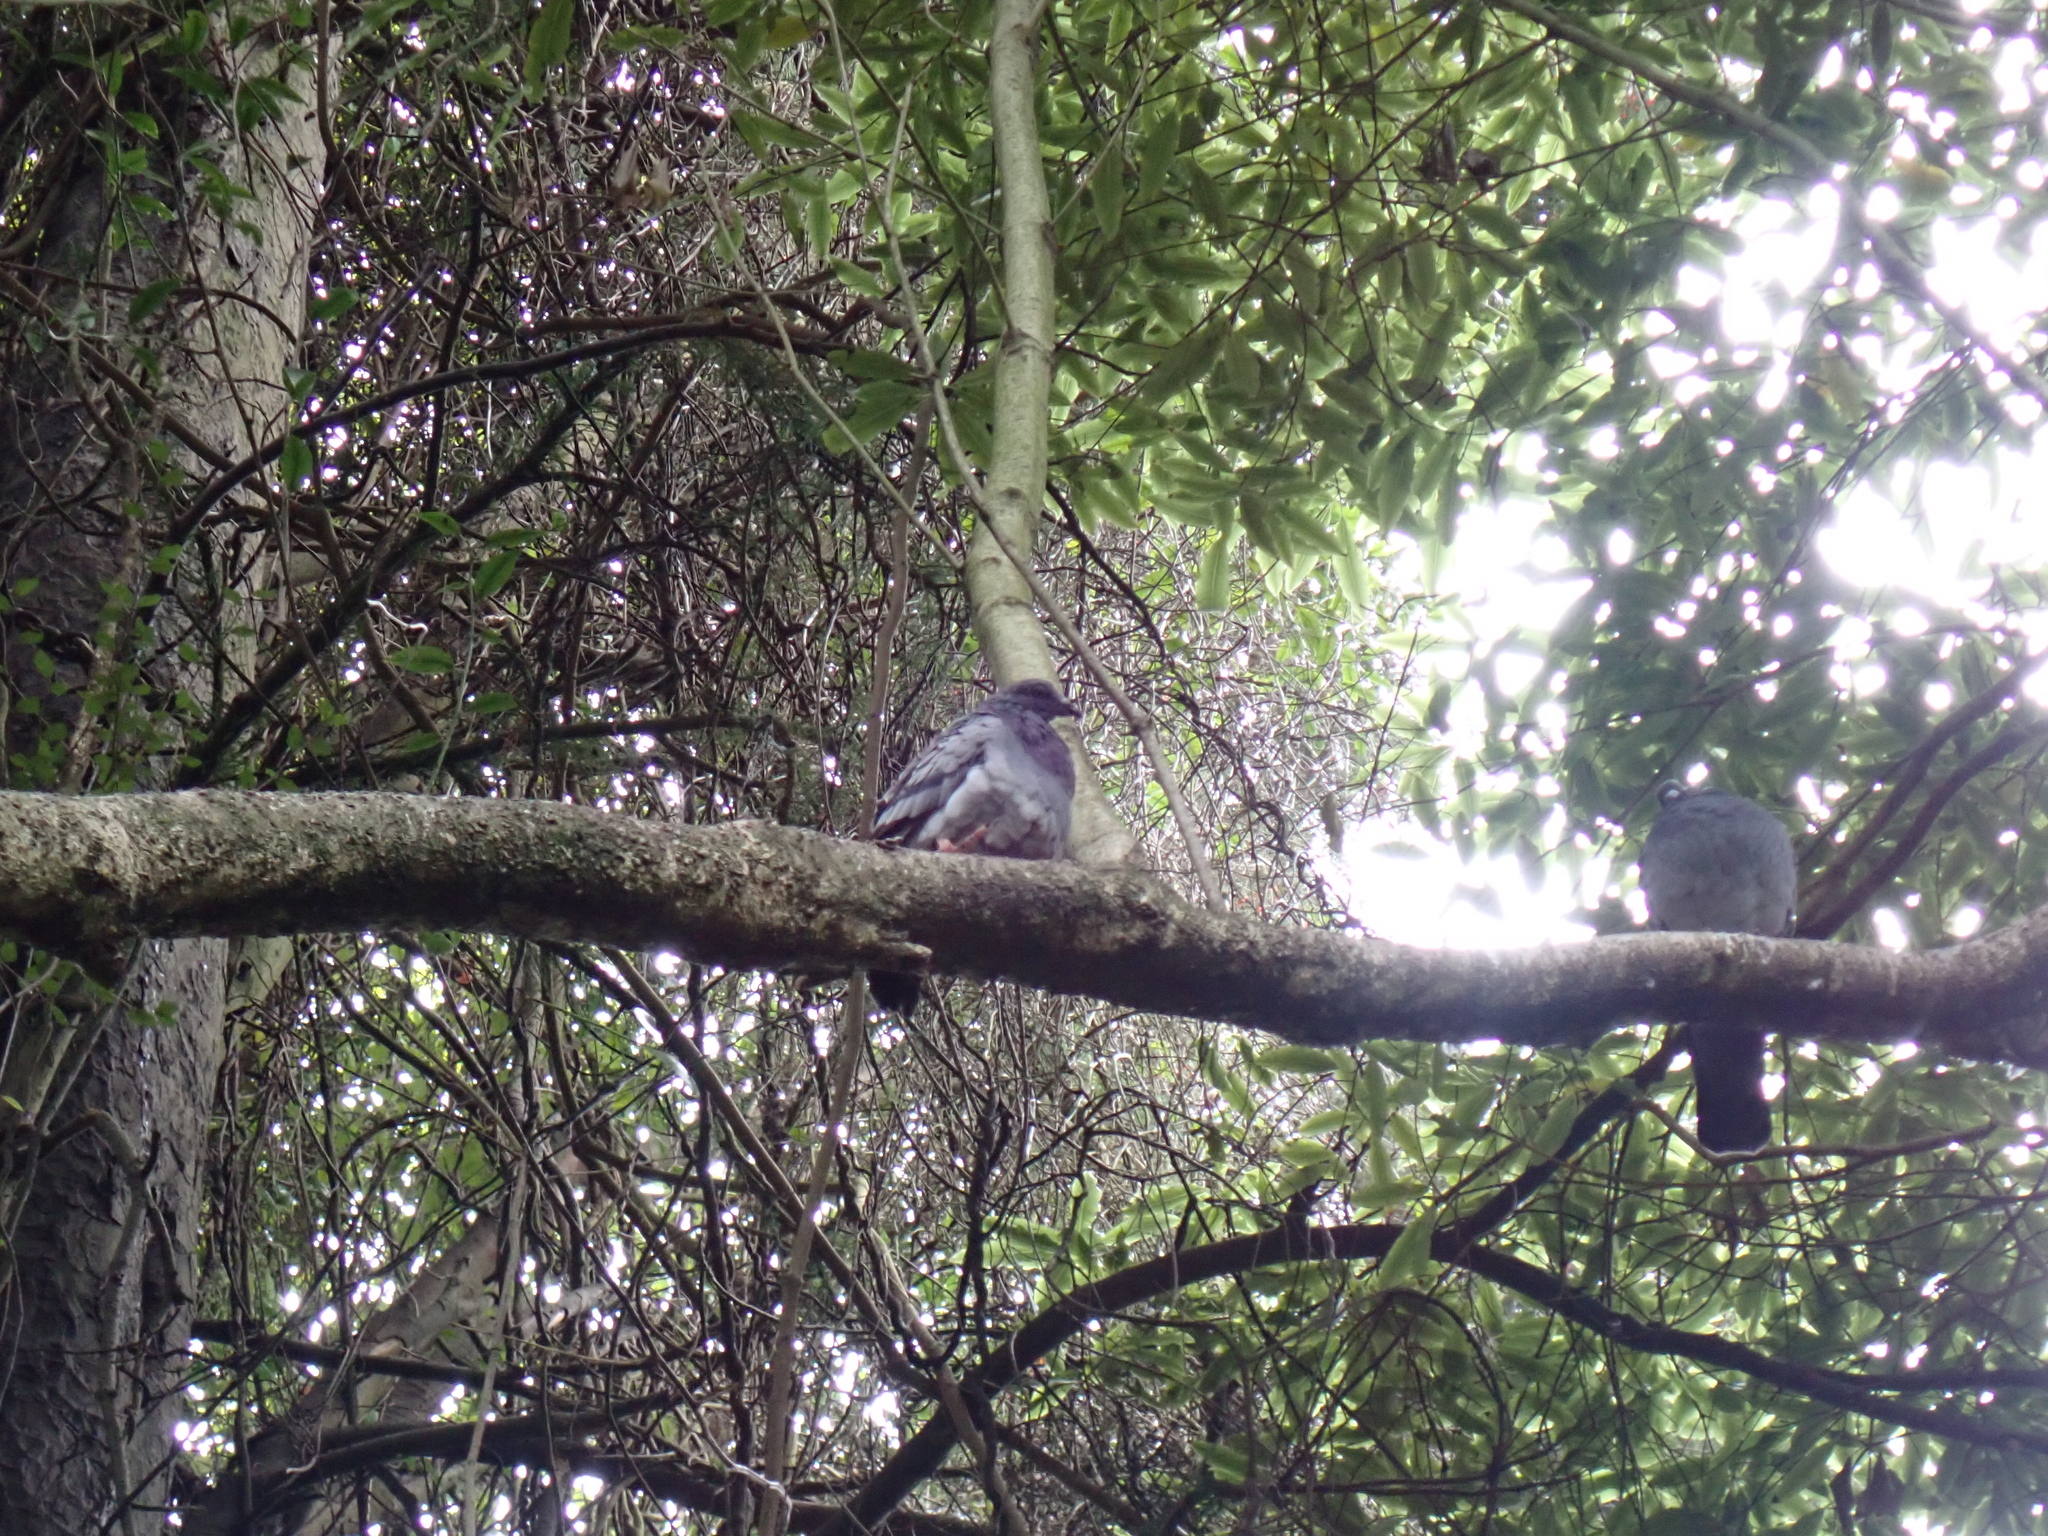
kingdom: Animalia
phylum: Chordata
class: Aves
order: Columbiformes
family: Columbidae
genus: Columba
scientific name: Columba livia
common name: Rock pigeon
